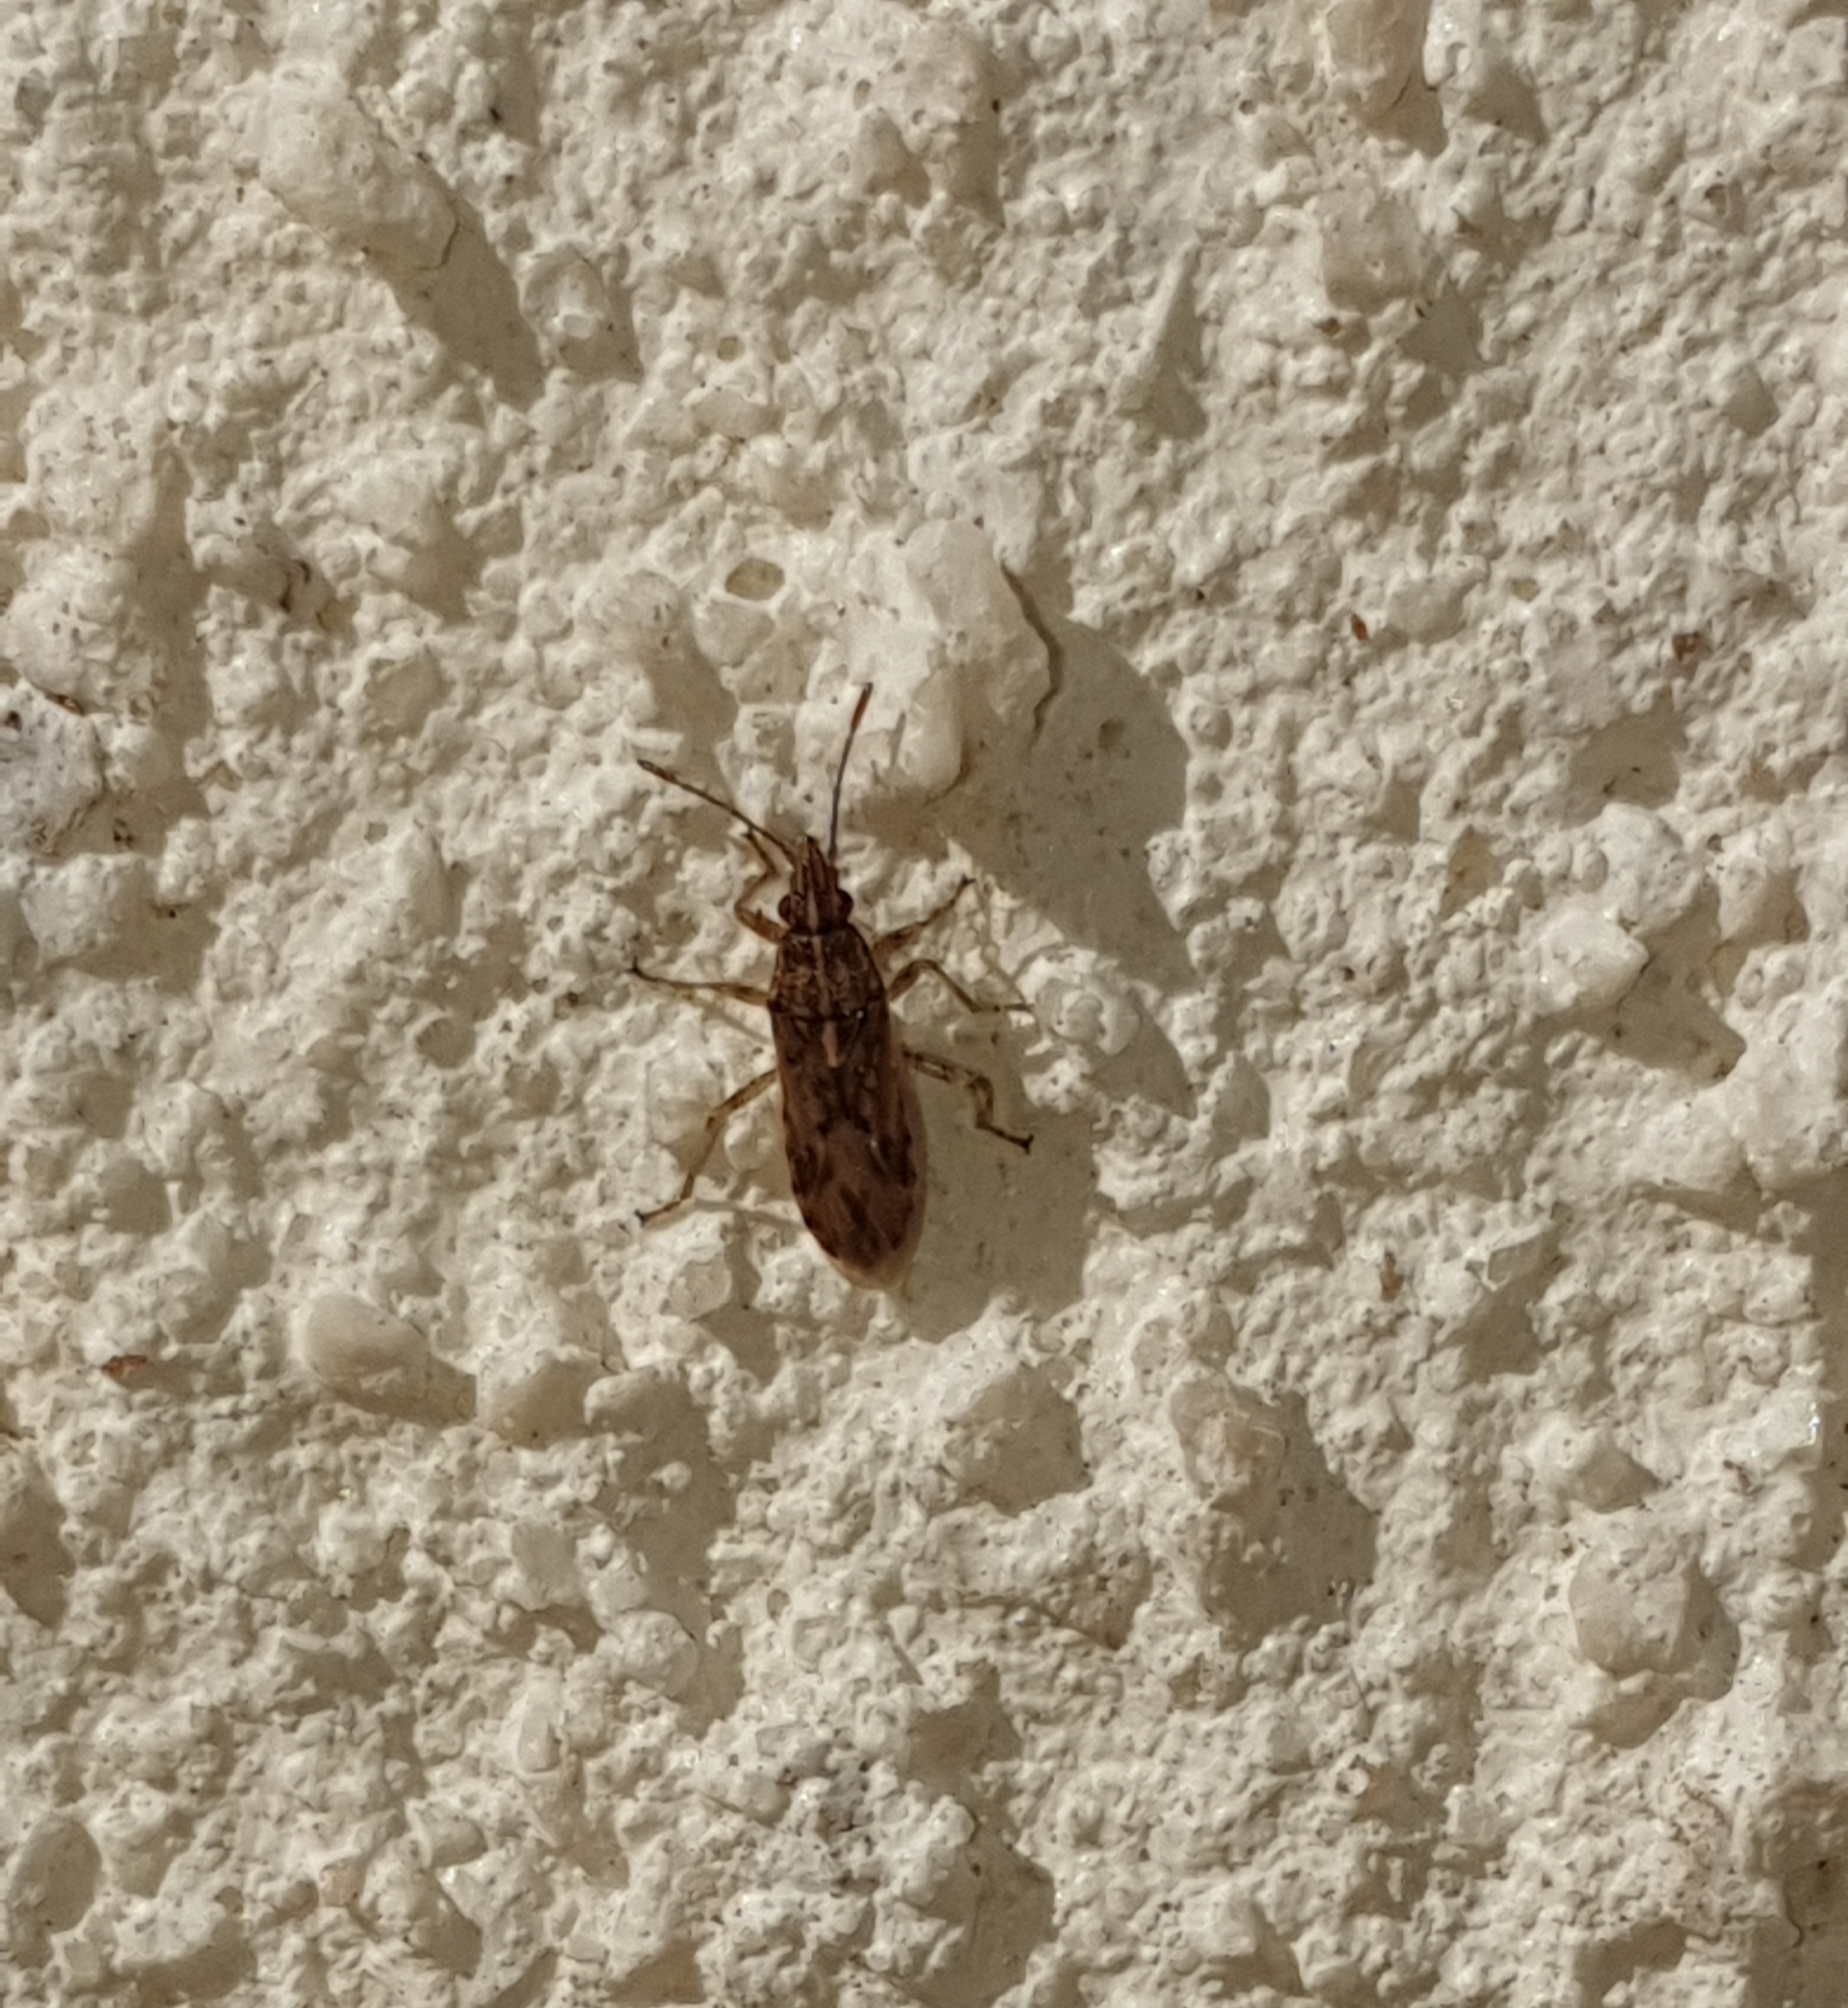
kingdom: Animalia
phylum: Arthropoda
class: Insecta
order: Hemiptera
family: Lygaeidae
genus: Belonochilus
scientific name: Belonochilus numenius
